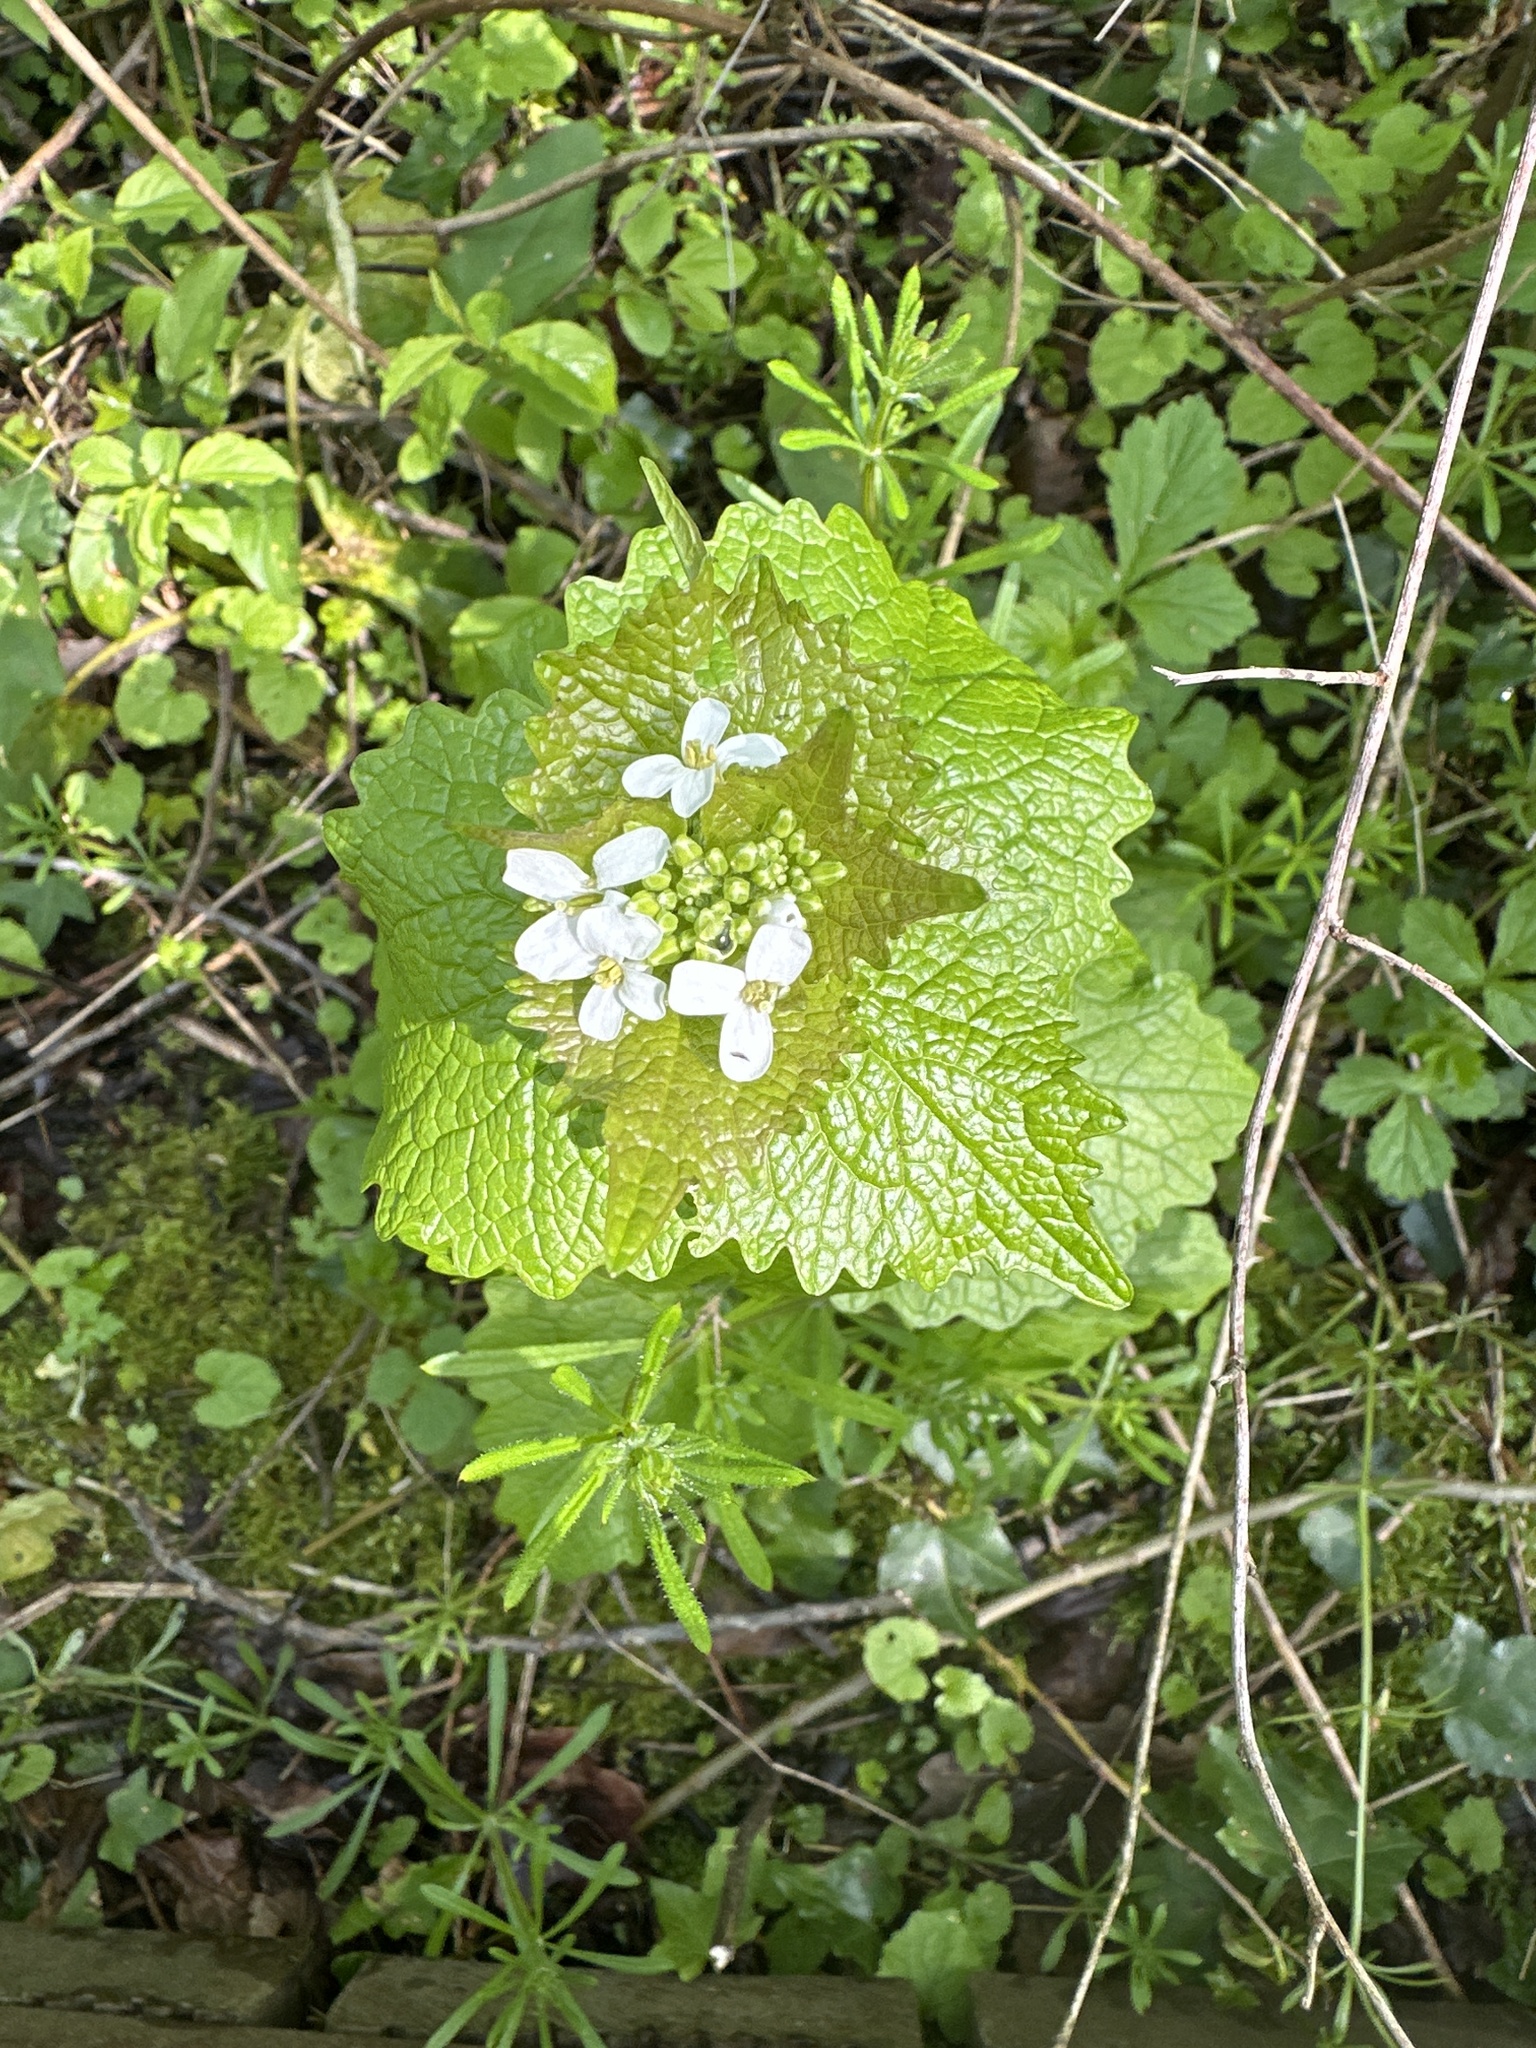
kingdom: Plantae
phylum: Tracheophyta
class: Magnoliopsida
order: Brassicales
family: Brassicaceae
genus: Alliaria
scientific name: Alliaria petiolata
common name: Garlic mustard
